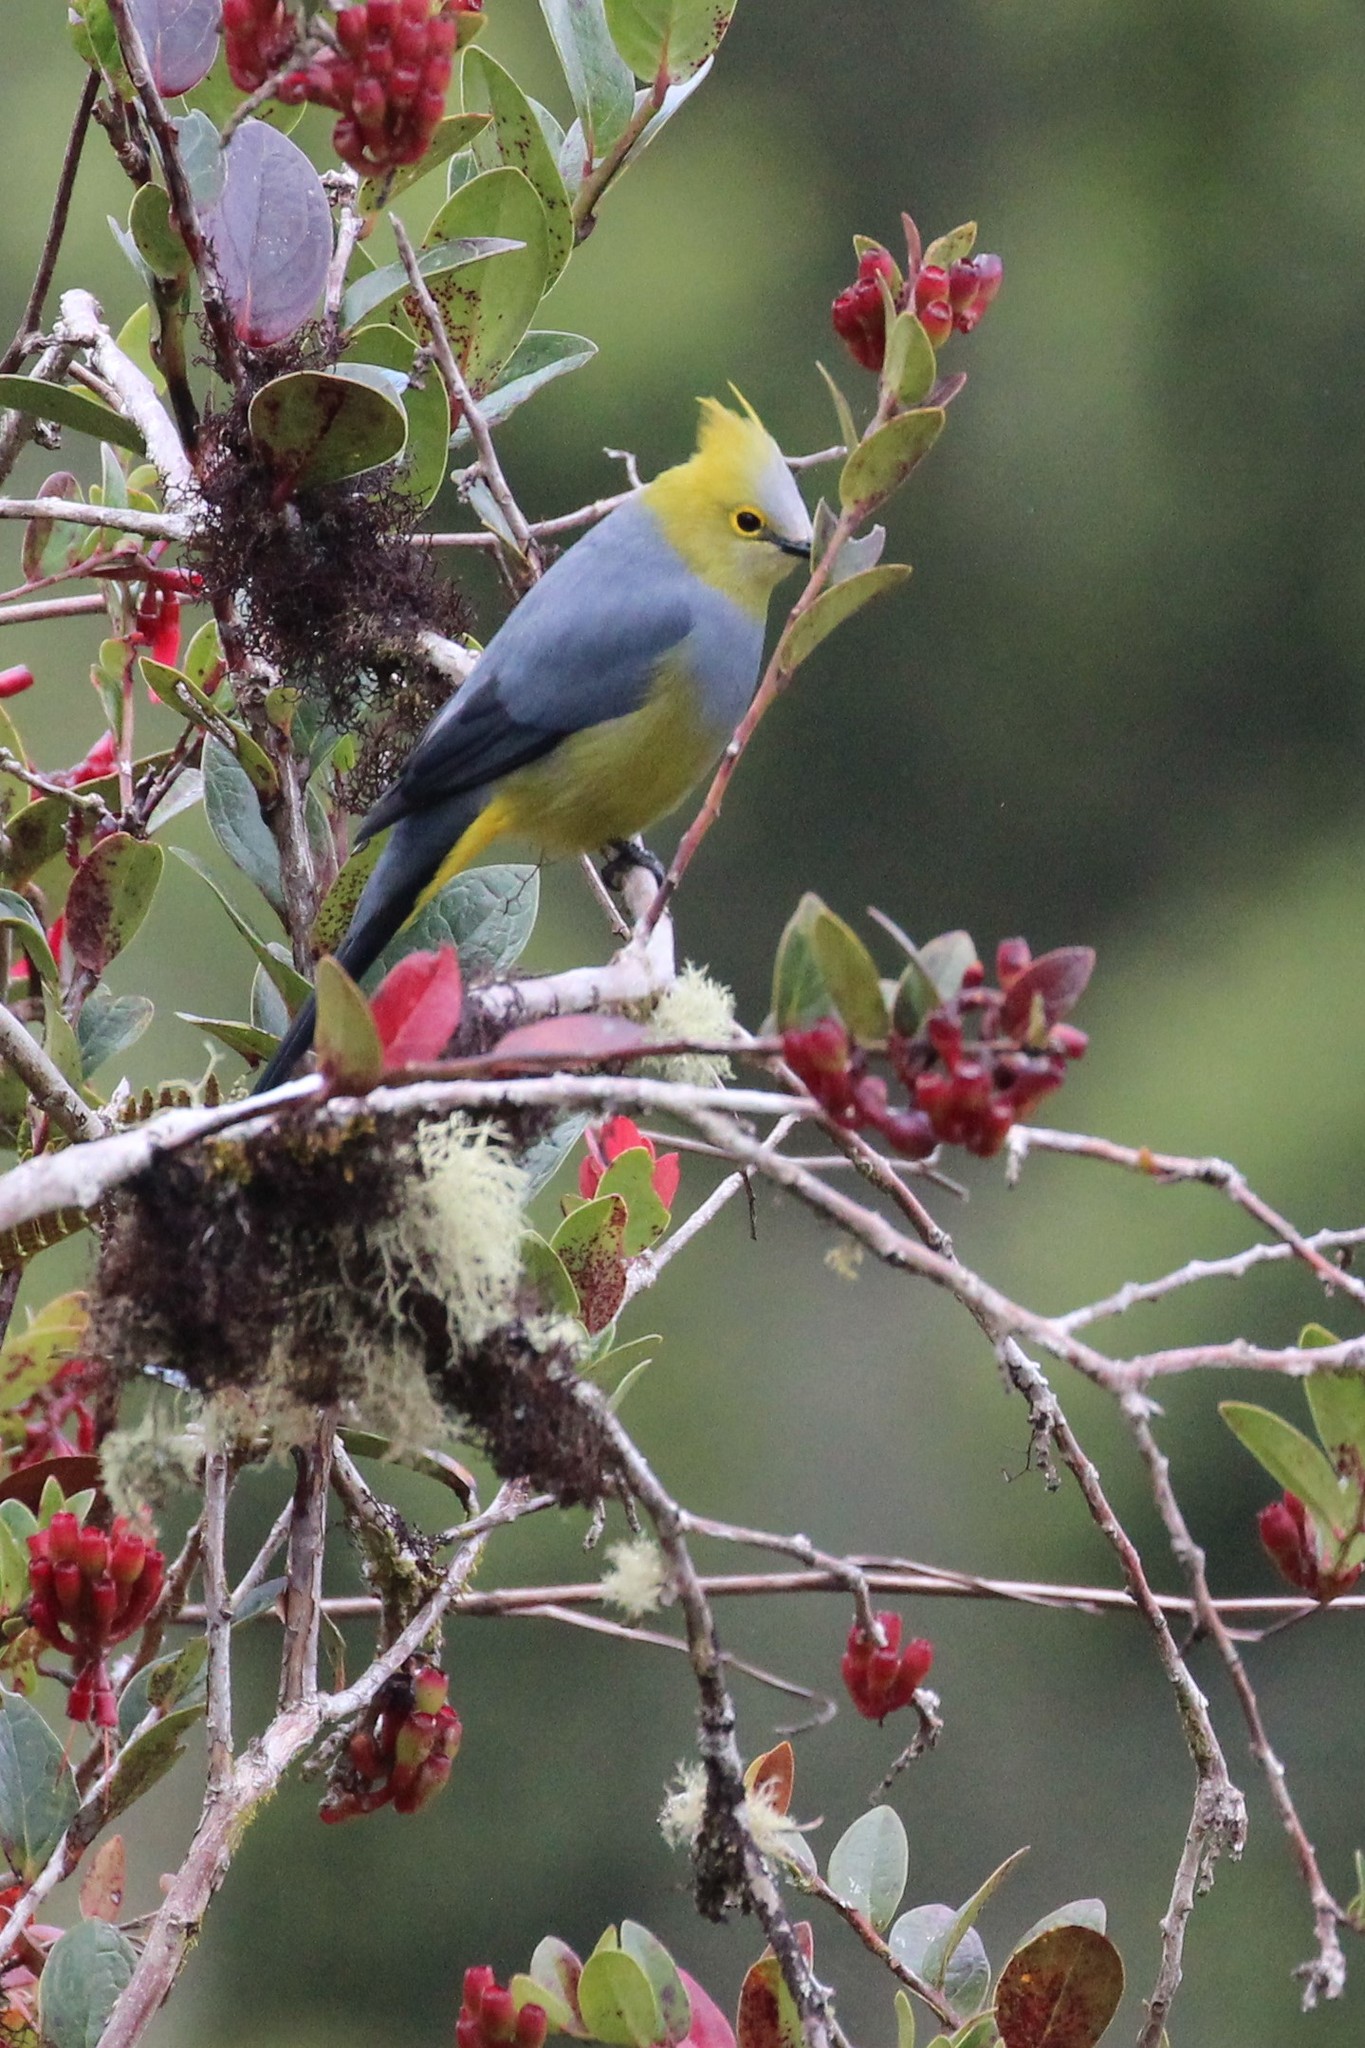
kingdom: Animalia
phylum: Chordata
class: Aves
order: Passeriformes
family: Ptilogonatidae
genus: Ptilogonys
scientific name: Ptilogonys caudatus
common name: Long-tailed silky-flycatcher
